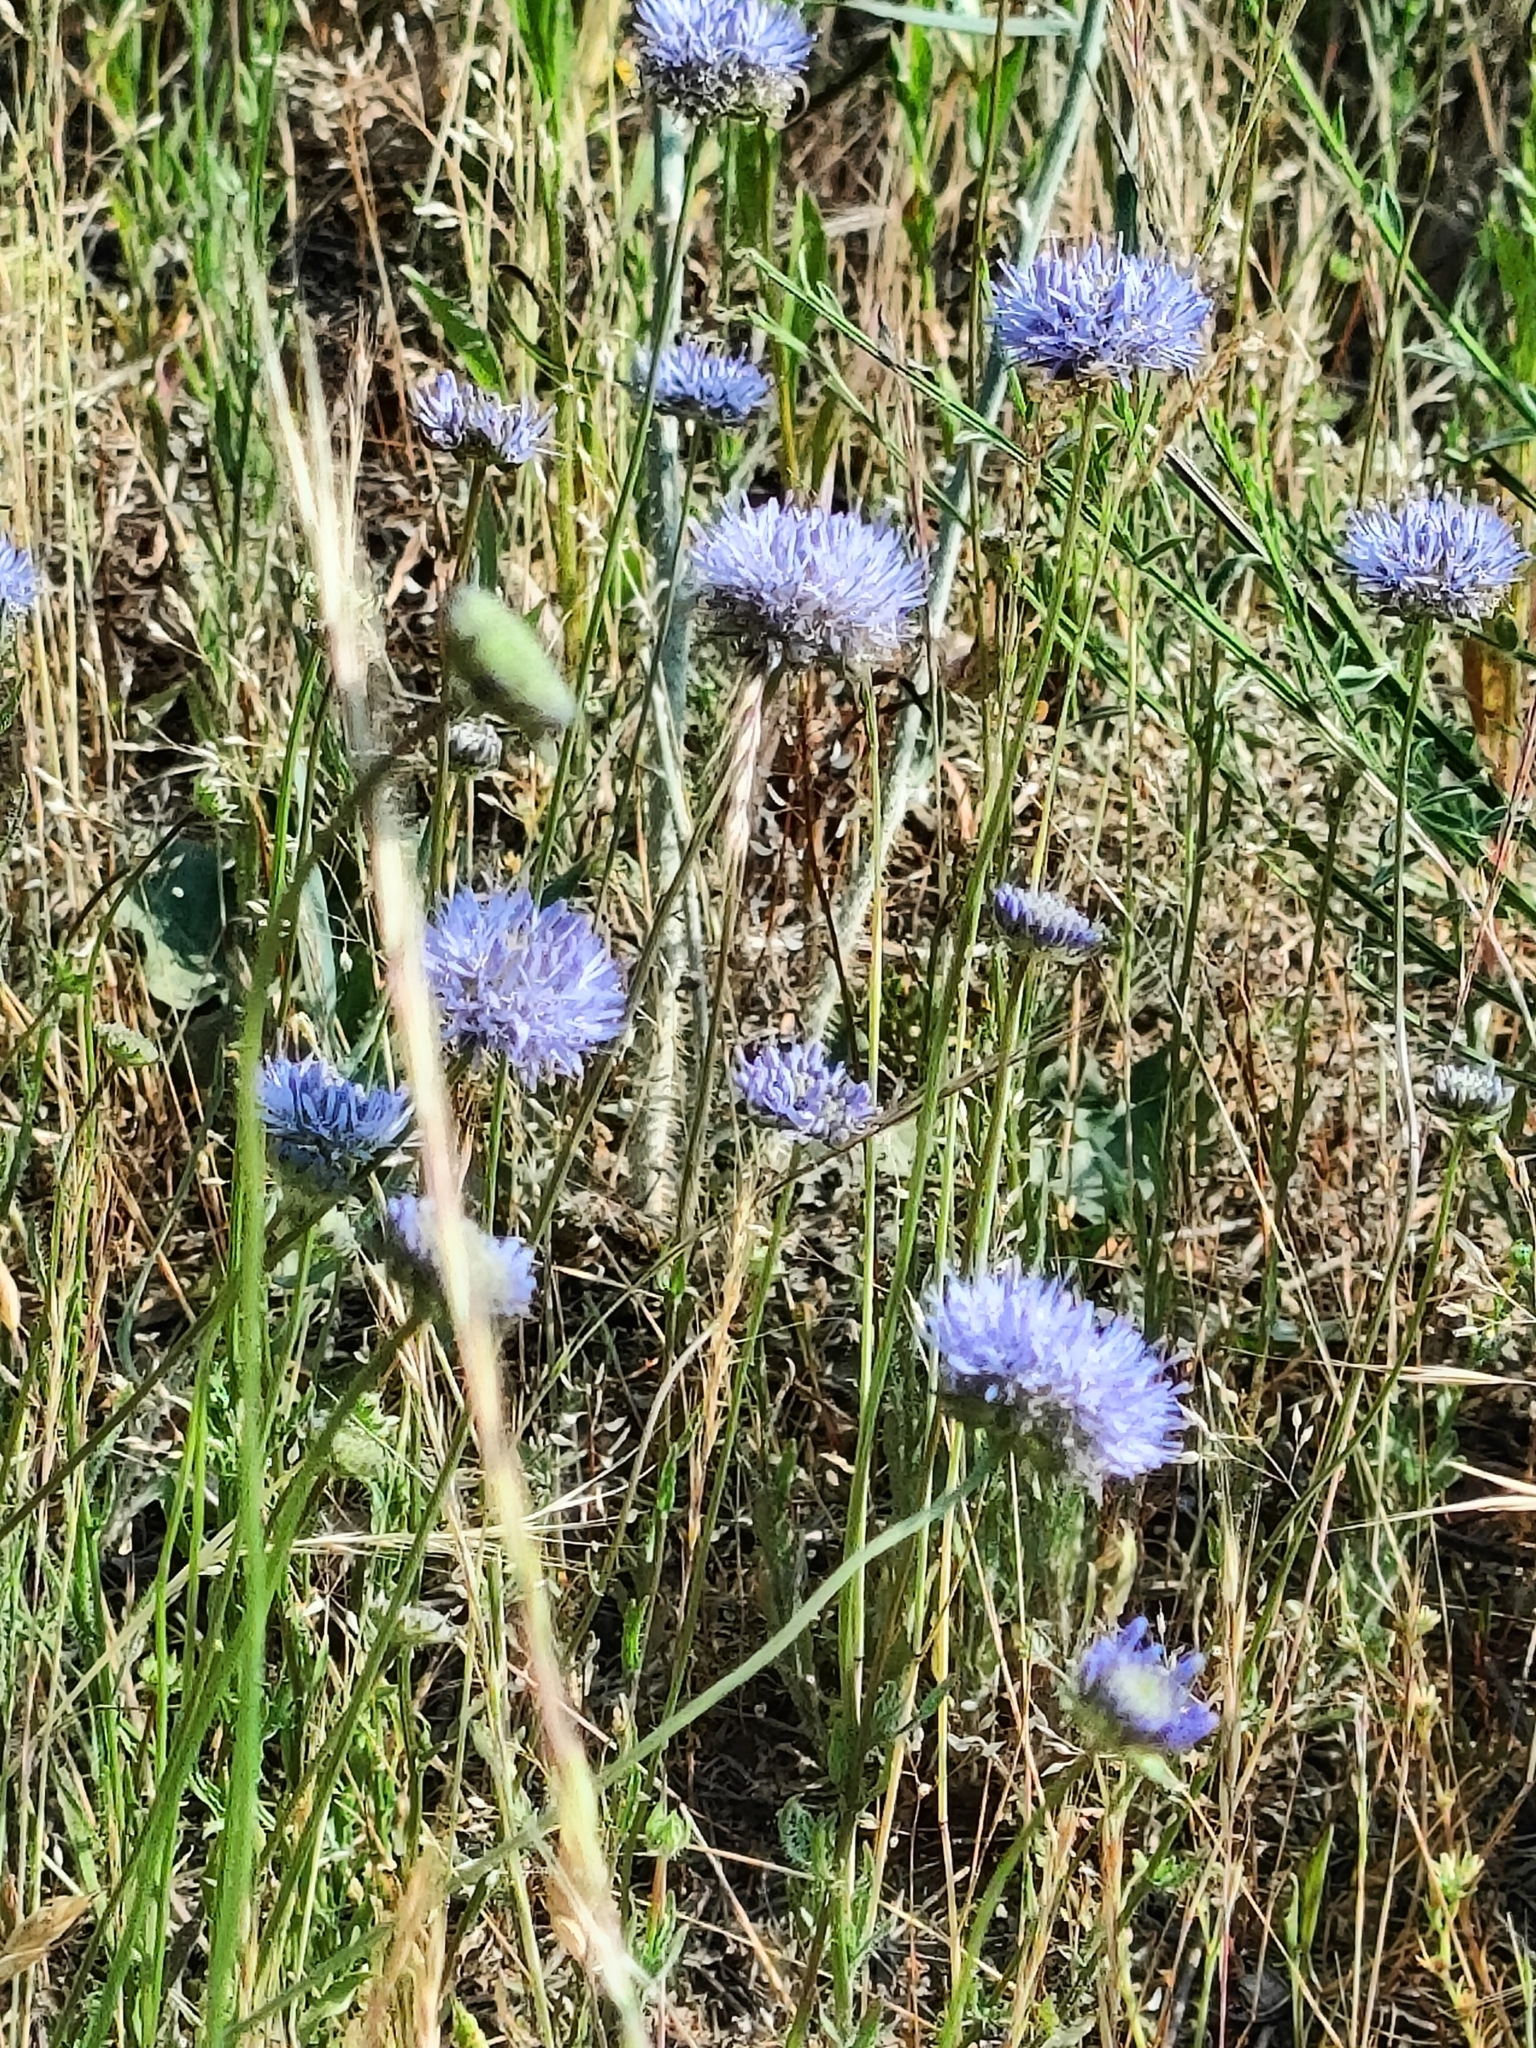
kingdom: Plantae
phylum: Tracheophyta
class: Magnoliopsida
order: Asterales
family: Campanulaceae
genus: Jasione
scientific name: Jasione montana
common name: Sheep's-bit
